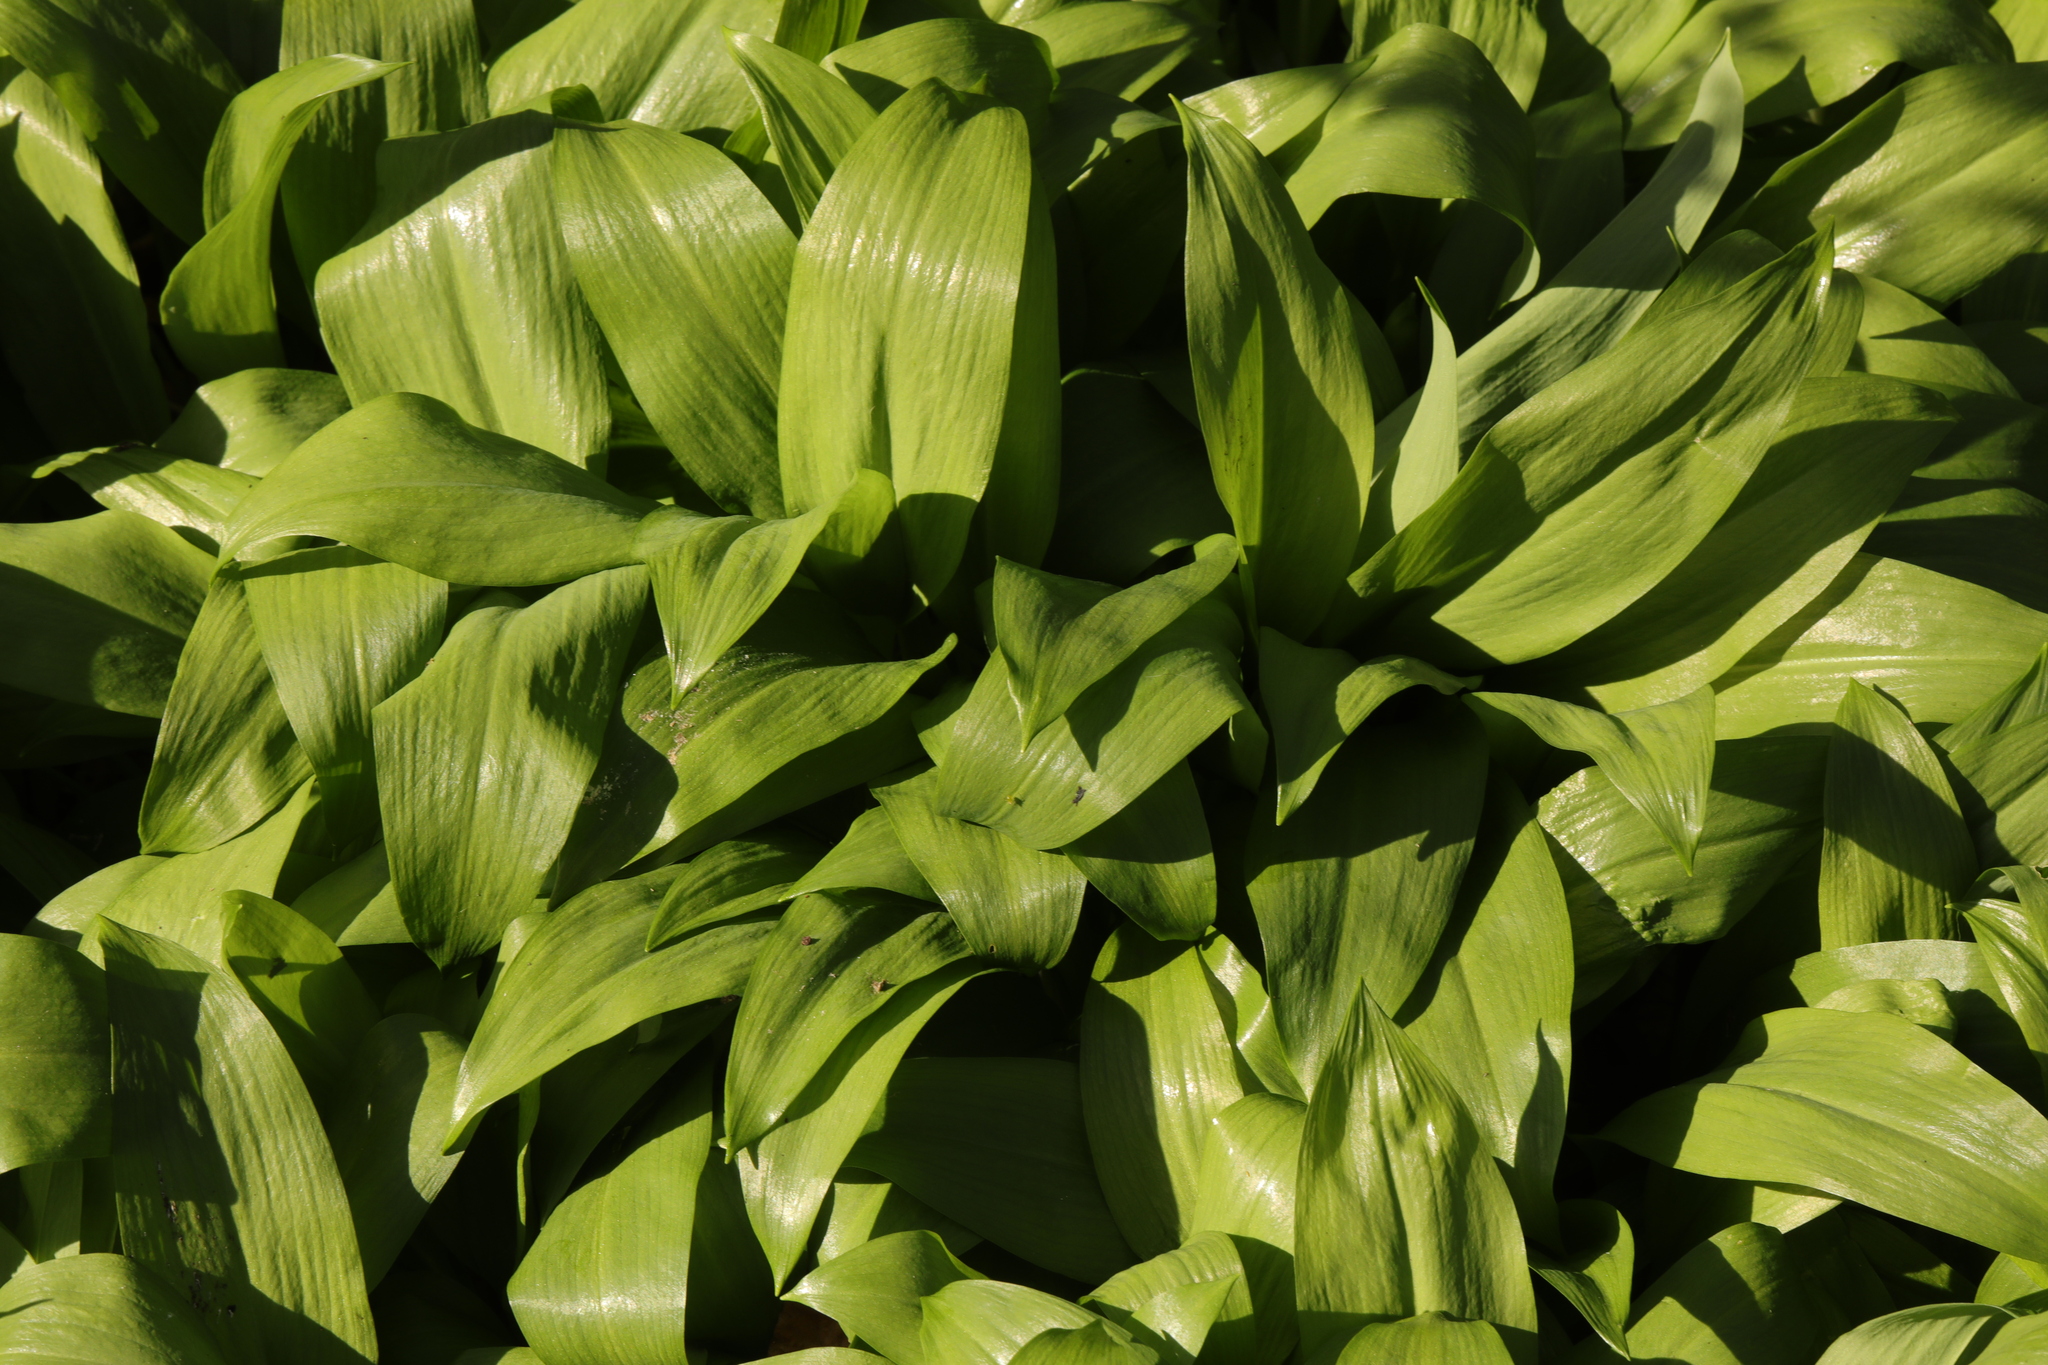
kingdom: Plantae
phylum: Tracheophyta
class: Liliopsida
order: Asparagales
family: Amaryllidaceae
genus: Allium
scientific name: Allium ursinum
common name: Ramsons
